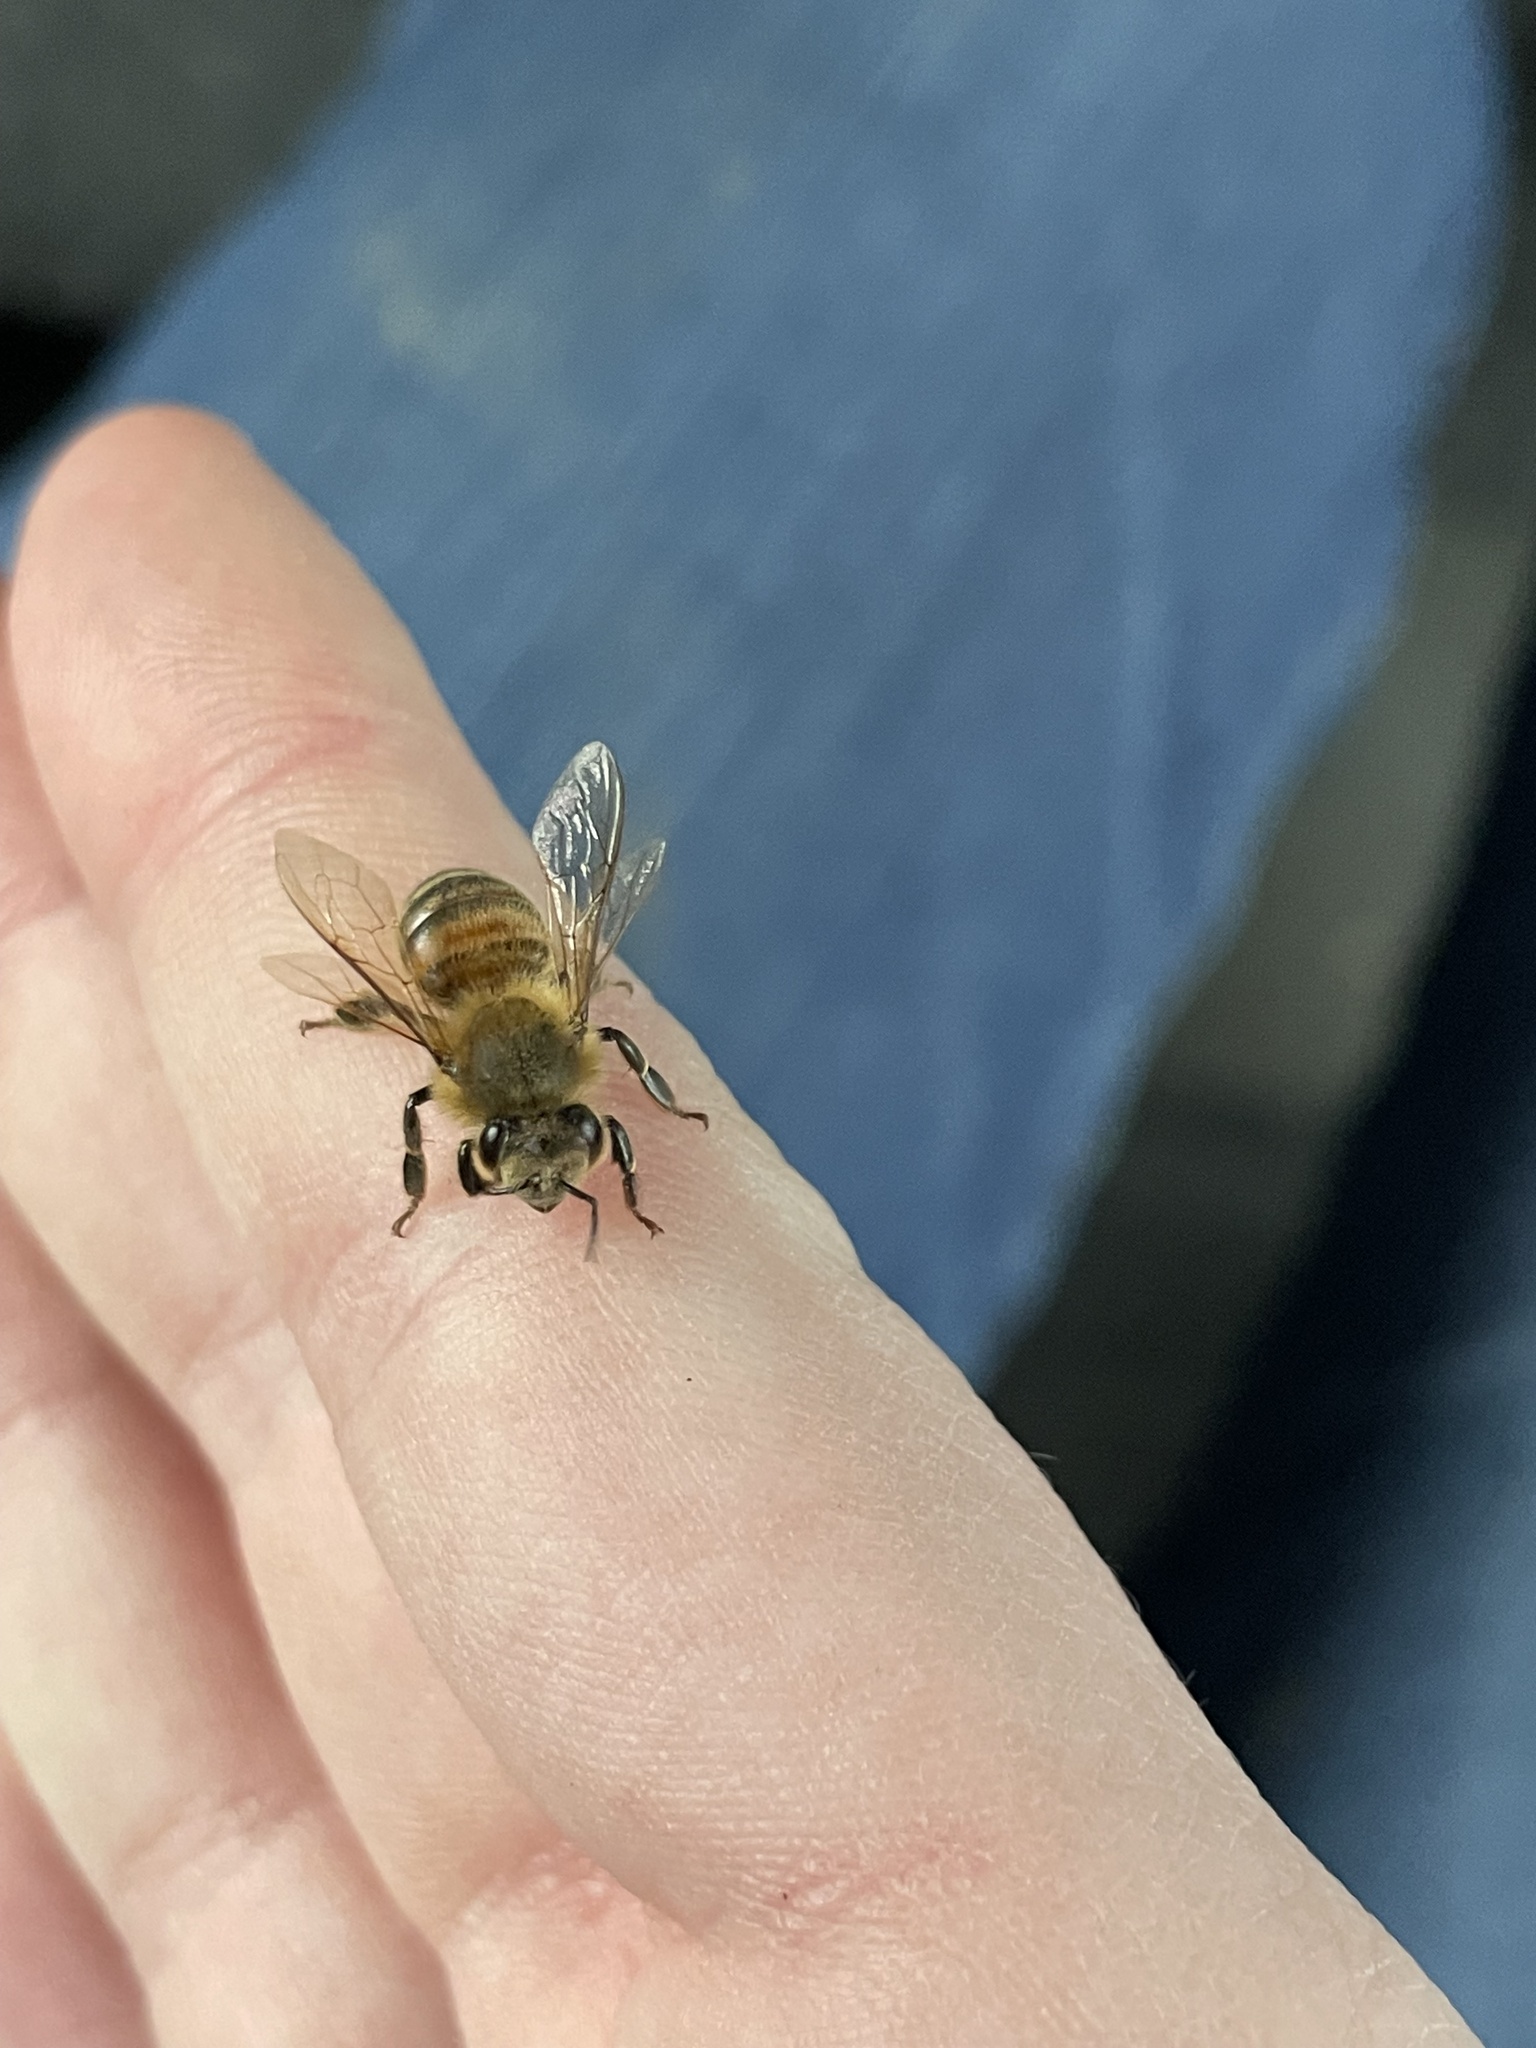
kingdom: Animalia
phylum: Arthropoda
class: Insecta
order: Hymenoptera
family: Apidae
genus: Apis
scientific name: Apis mellifera
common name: Honey bee
